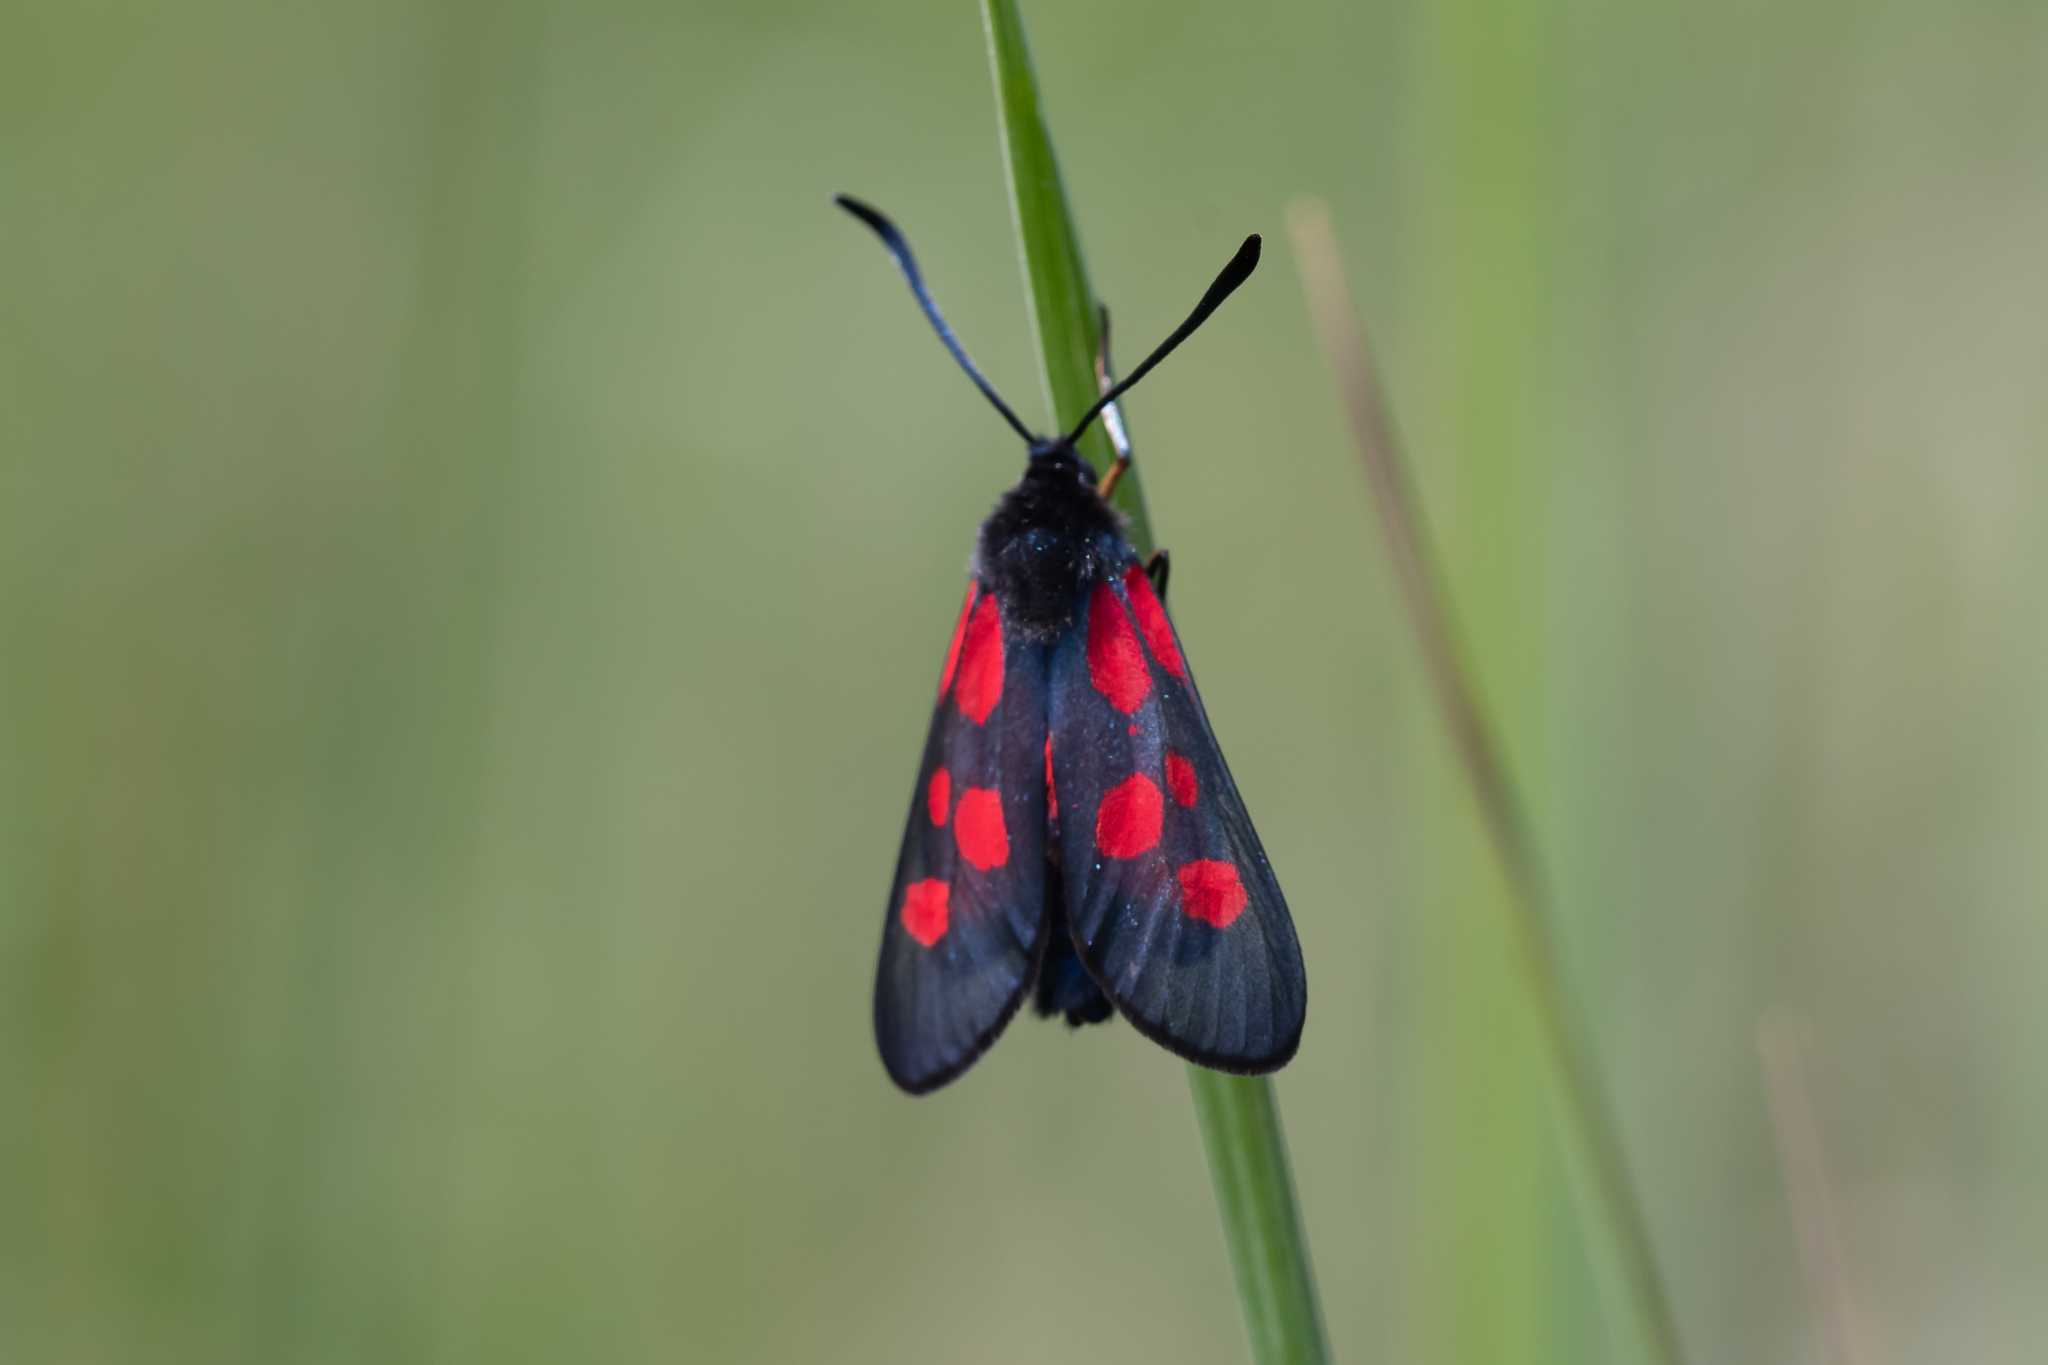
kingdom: Animalia
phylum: Arthropoda
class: Insecta
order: Lepidoptera
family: Zygaenidae
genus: Zygaena
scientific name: Zygaena viciae
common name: New forest burnet
